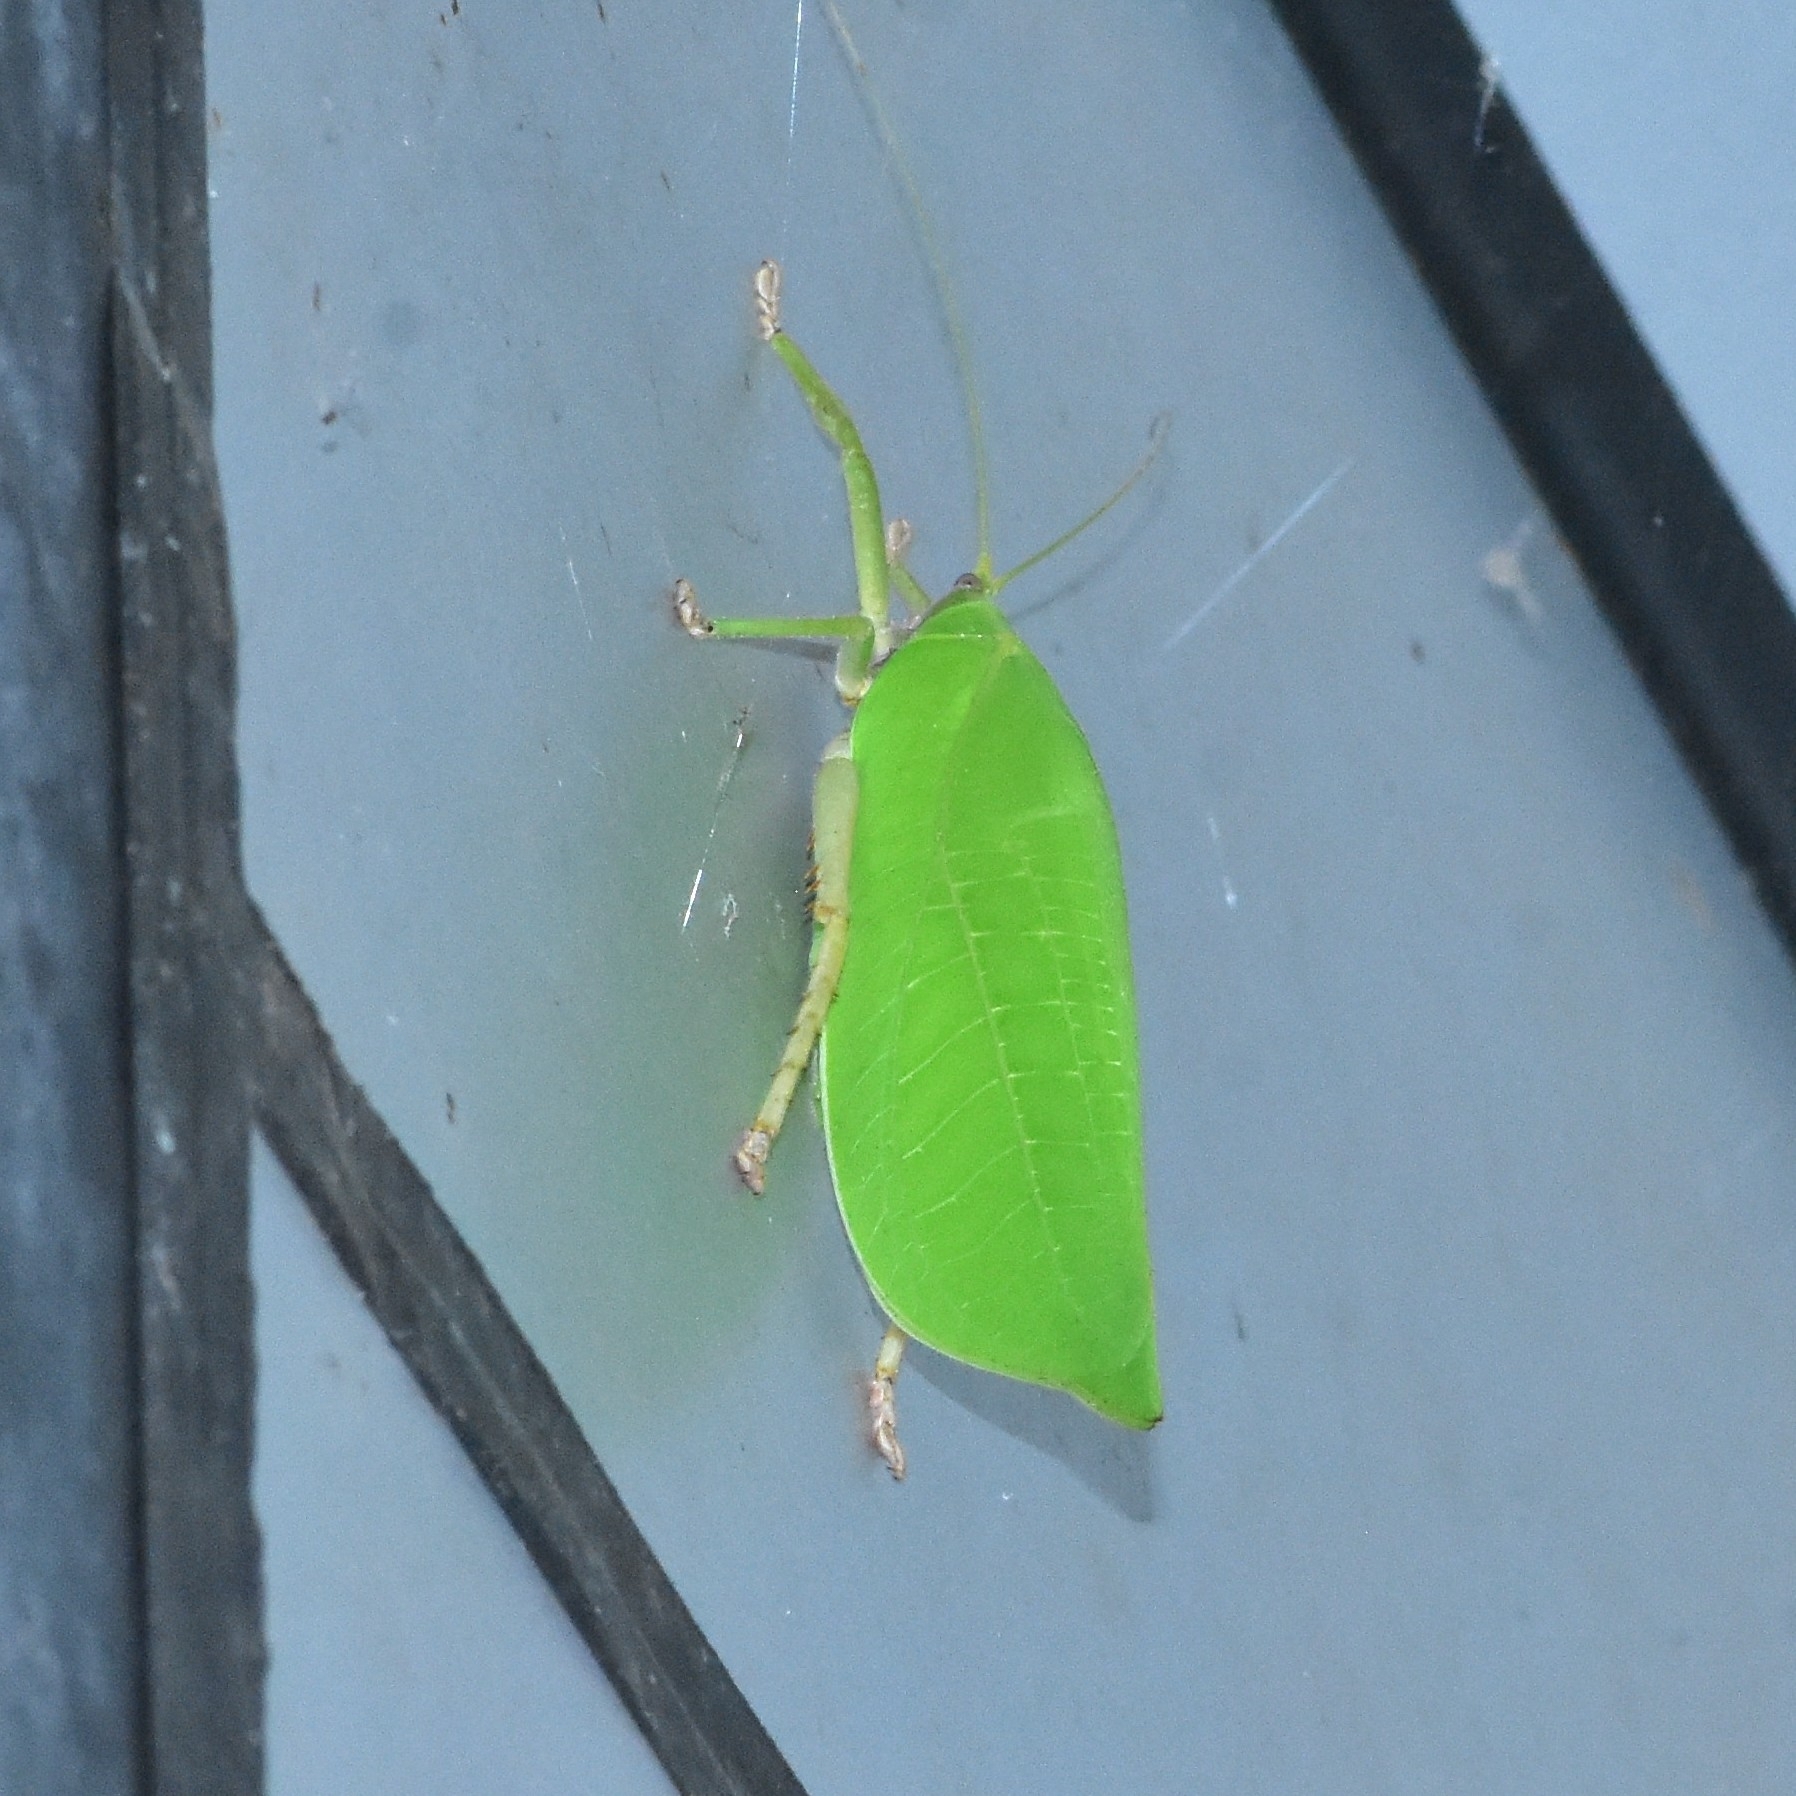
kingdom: Animalia
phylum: Arthropoda
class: Insecta
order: Orthoptera
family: Tettigoniidae
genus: Onomarchus
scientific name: Onomarchus uninotatus
